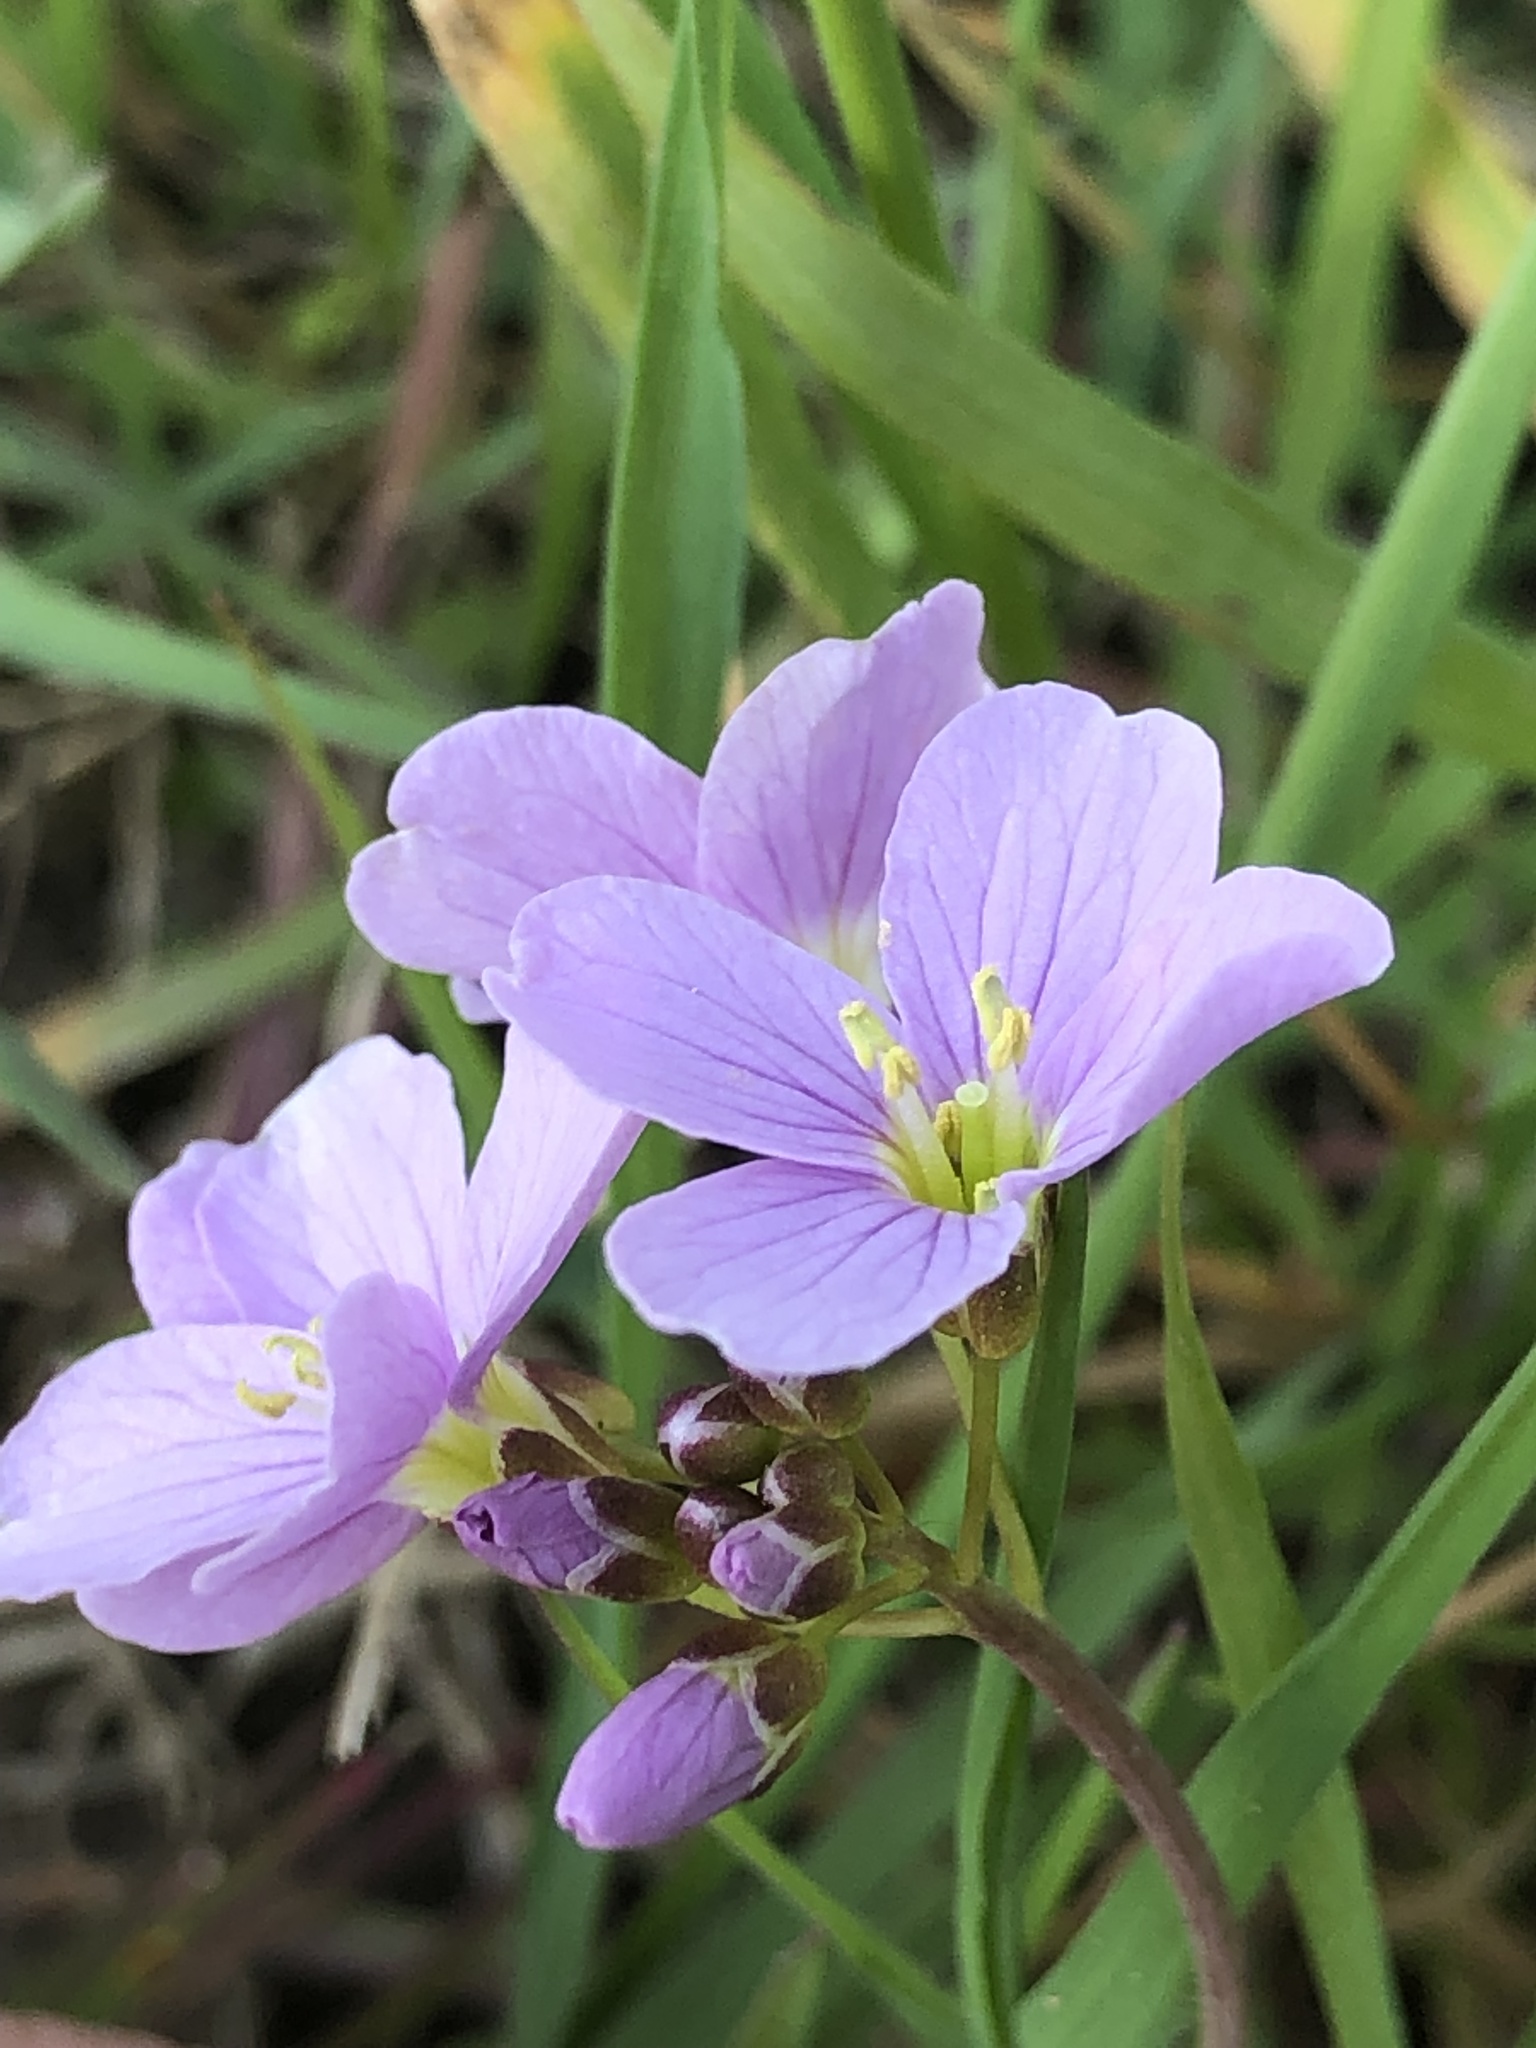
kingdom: Plantae
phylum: Tracheophyta
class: Magnoliopsida
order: Brassicales
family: Brassicaceae
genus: Cardamine
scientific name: Cardamine pratensis
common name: Cuckoo flower
